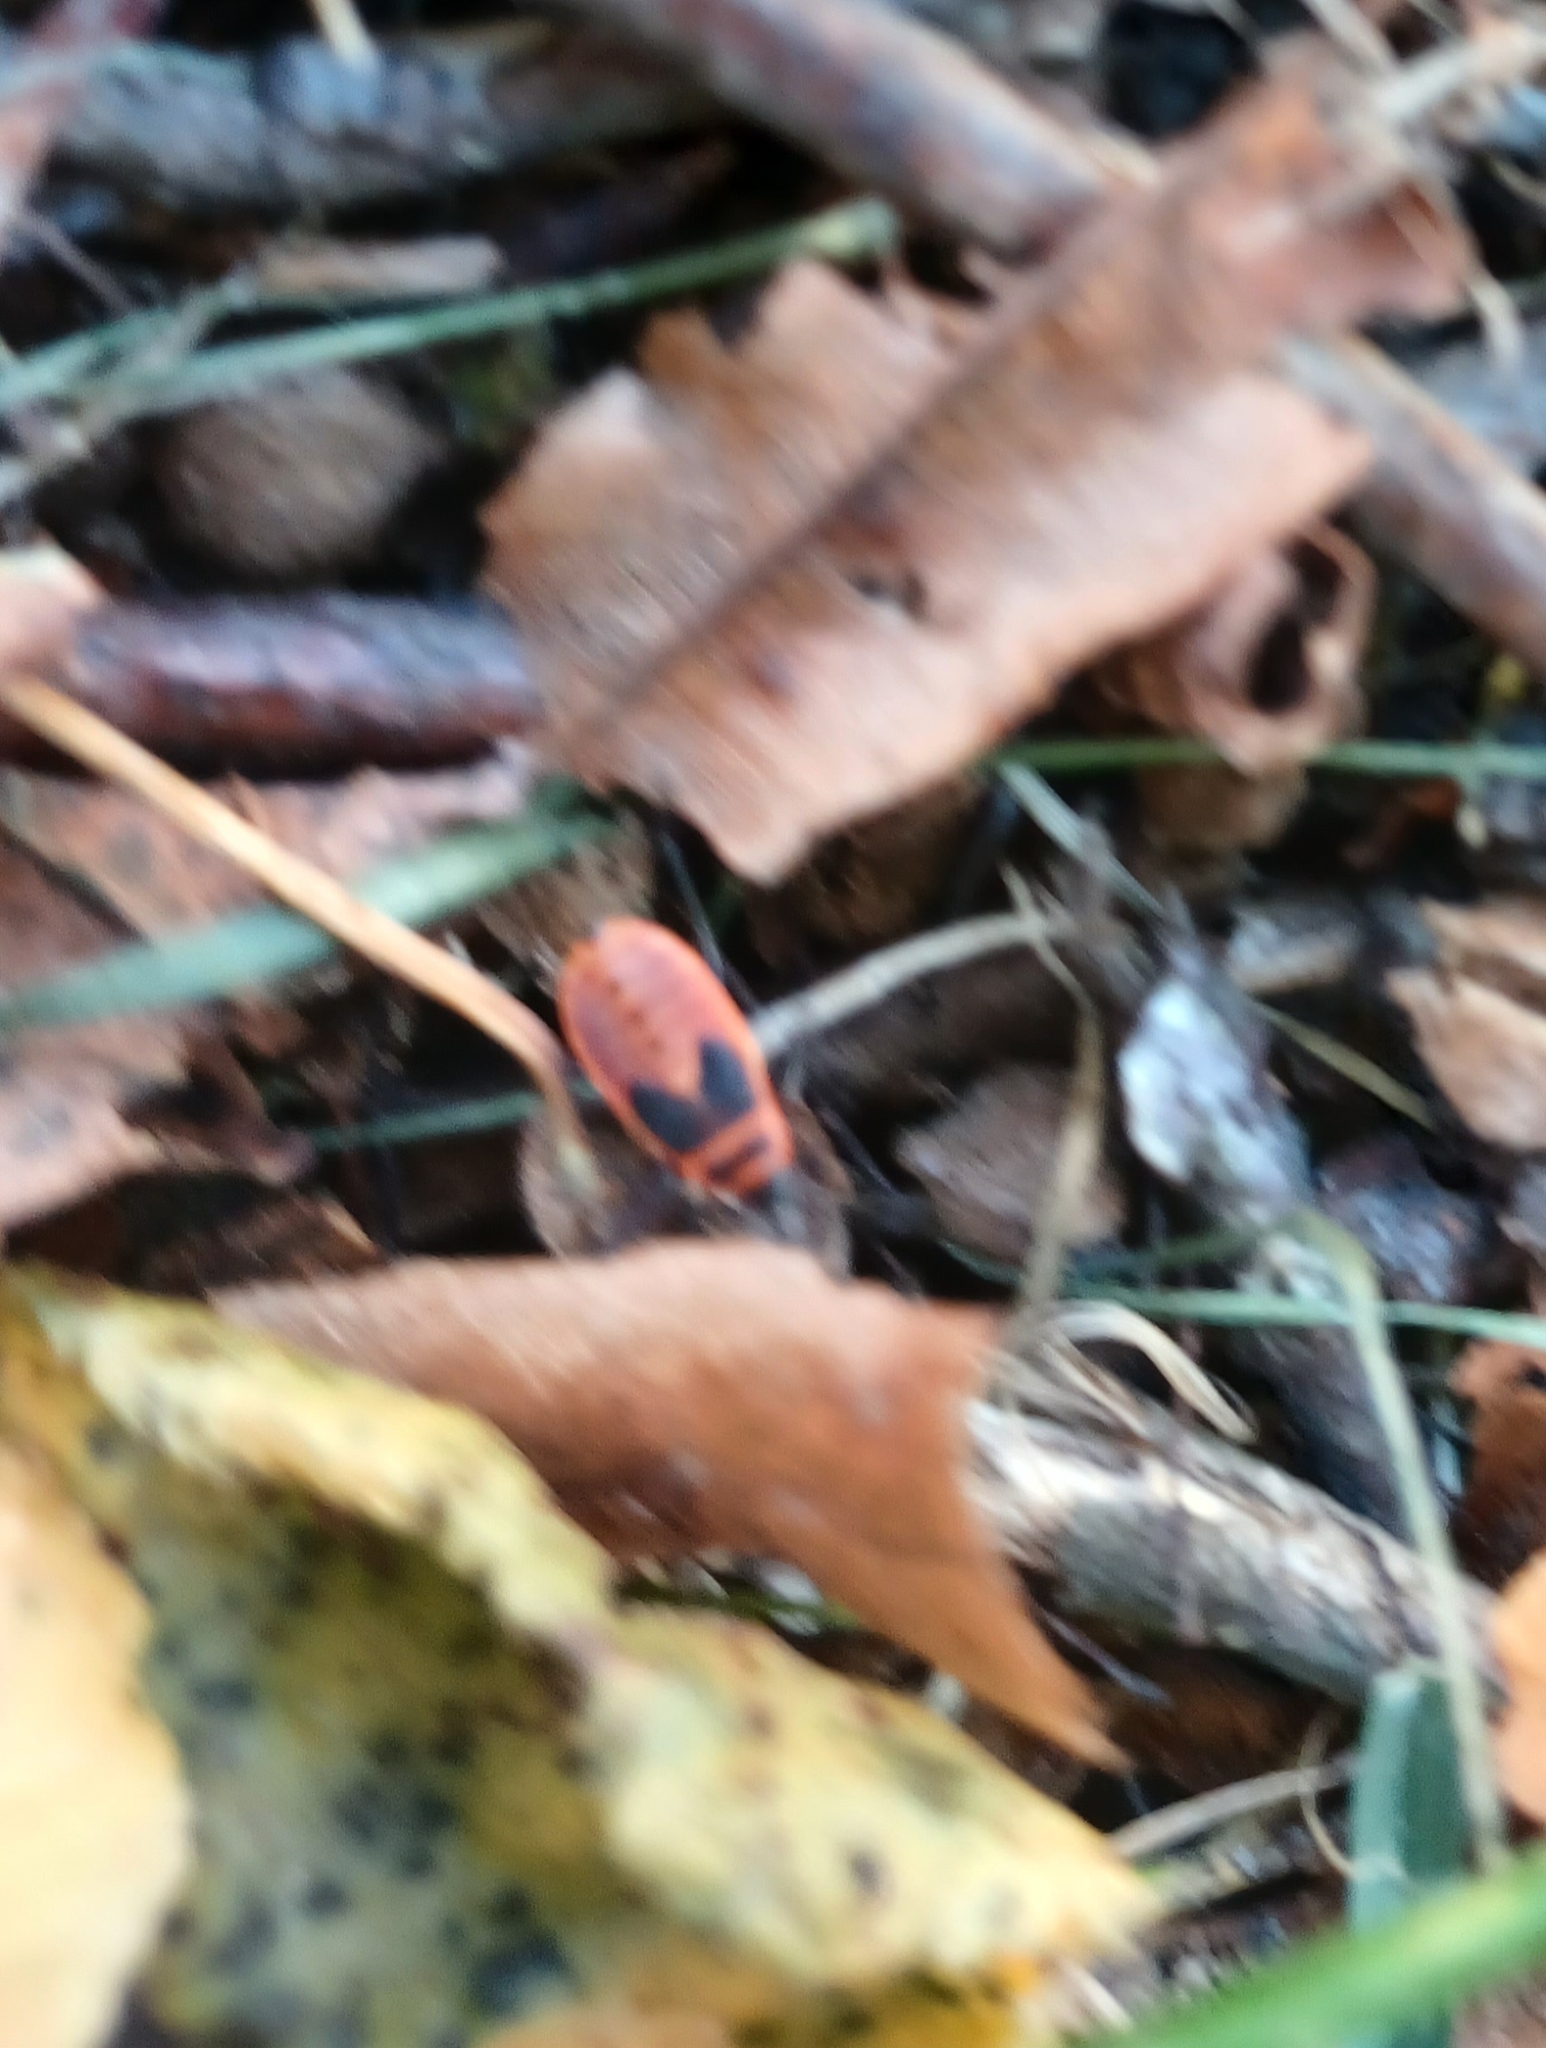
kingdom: Animalia
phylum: Arthropoda
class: Insecta
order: Hemiptera
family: Pyrrhocoridae
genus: Pyrrhocoris
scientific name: Pyrrhocoris apterus
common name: Firebug
